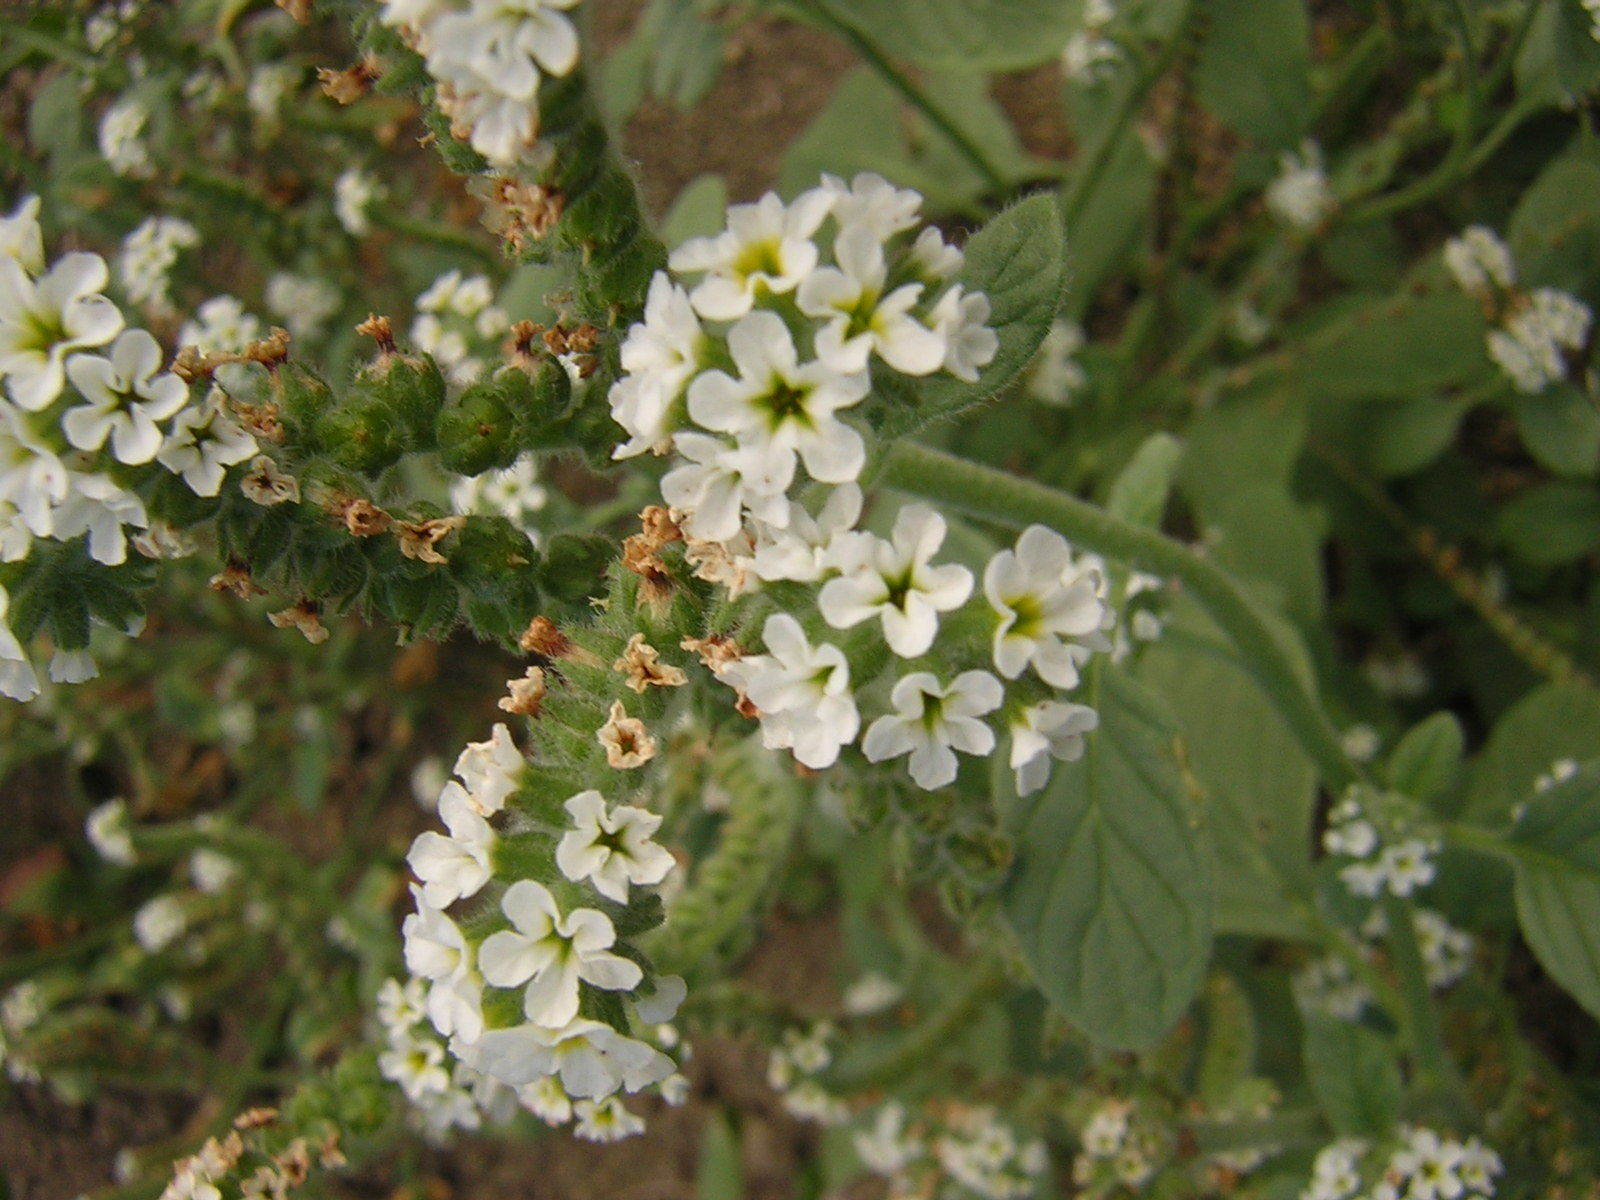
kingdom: Plantae
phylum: Tracheophyta
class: Magnoliopsida
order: Boraginales
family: Heliotropiaceae
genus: Heliotropium
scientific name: Heliotropium europaeum
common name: European heliotrope
